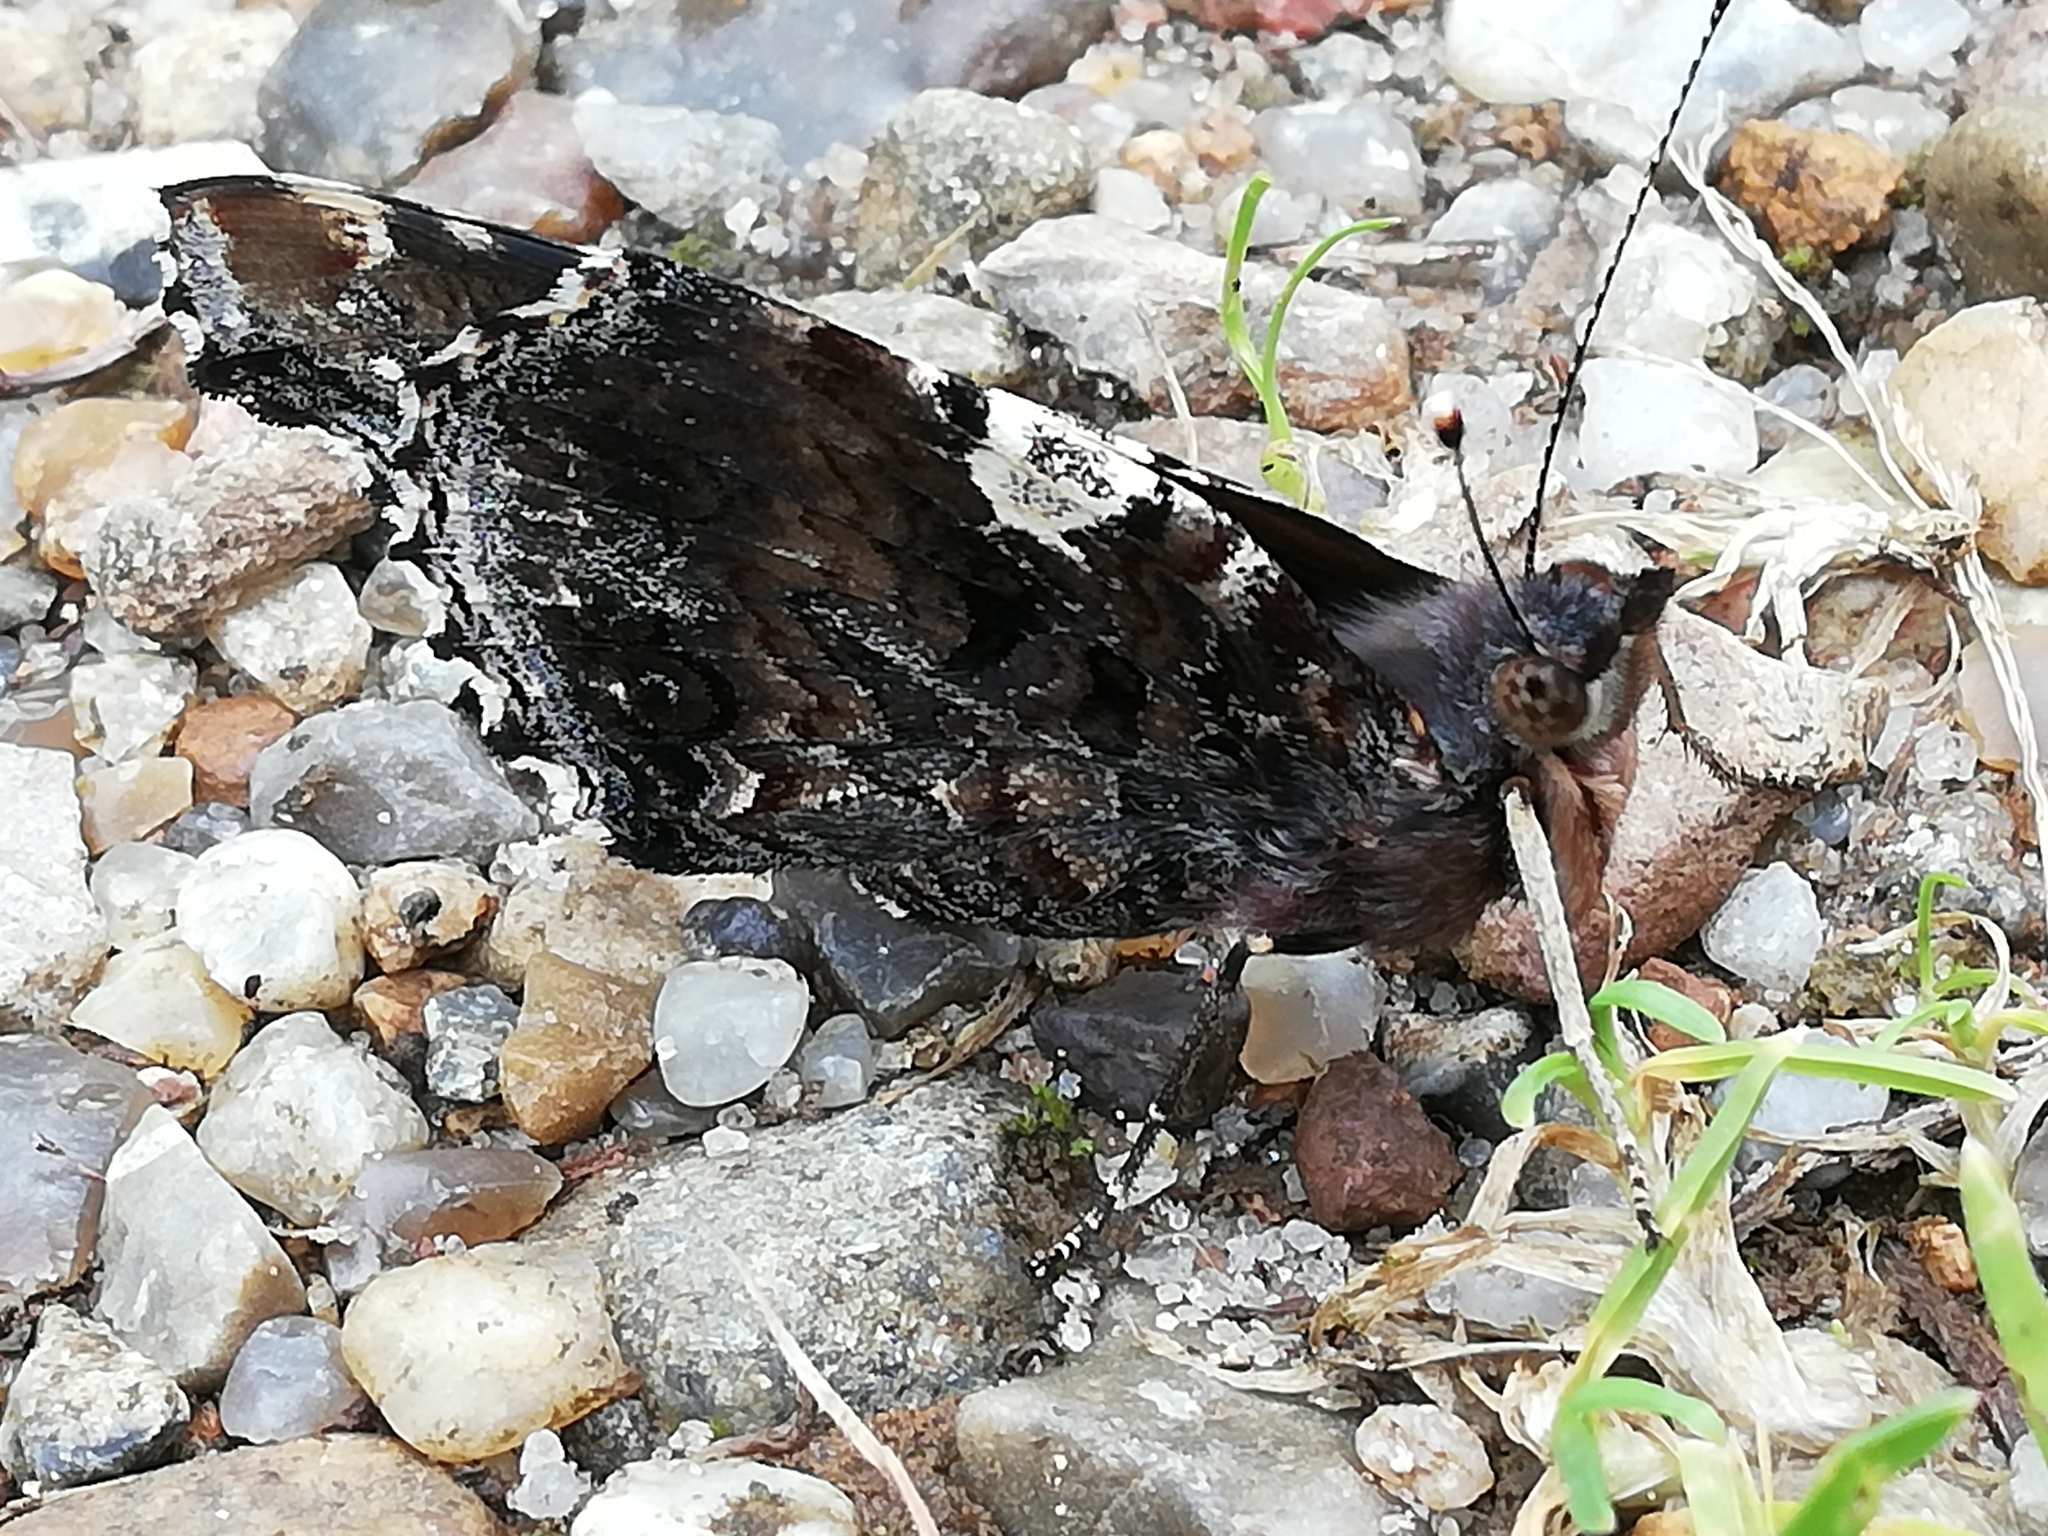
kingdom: Animalia
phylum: Arthropoda
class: Insecta
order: Lepidoptera
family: Nymphalidae
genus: Vanessa
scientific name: Vanessa atalanta
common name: Red admiral
